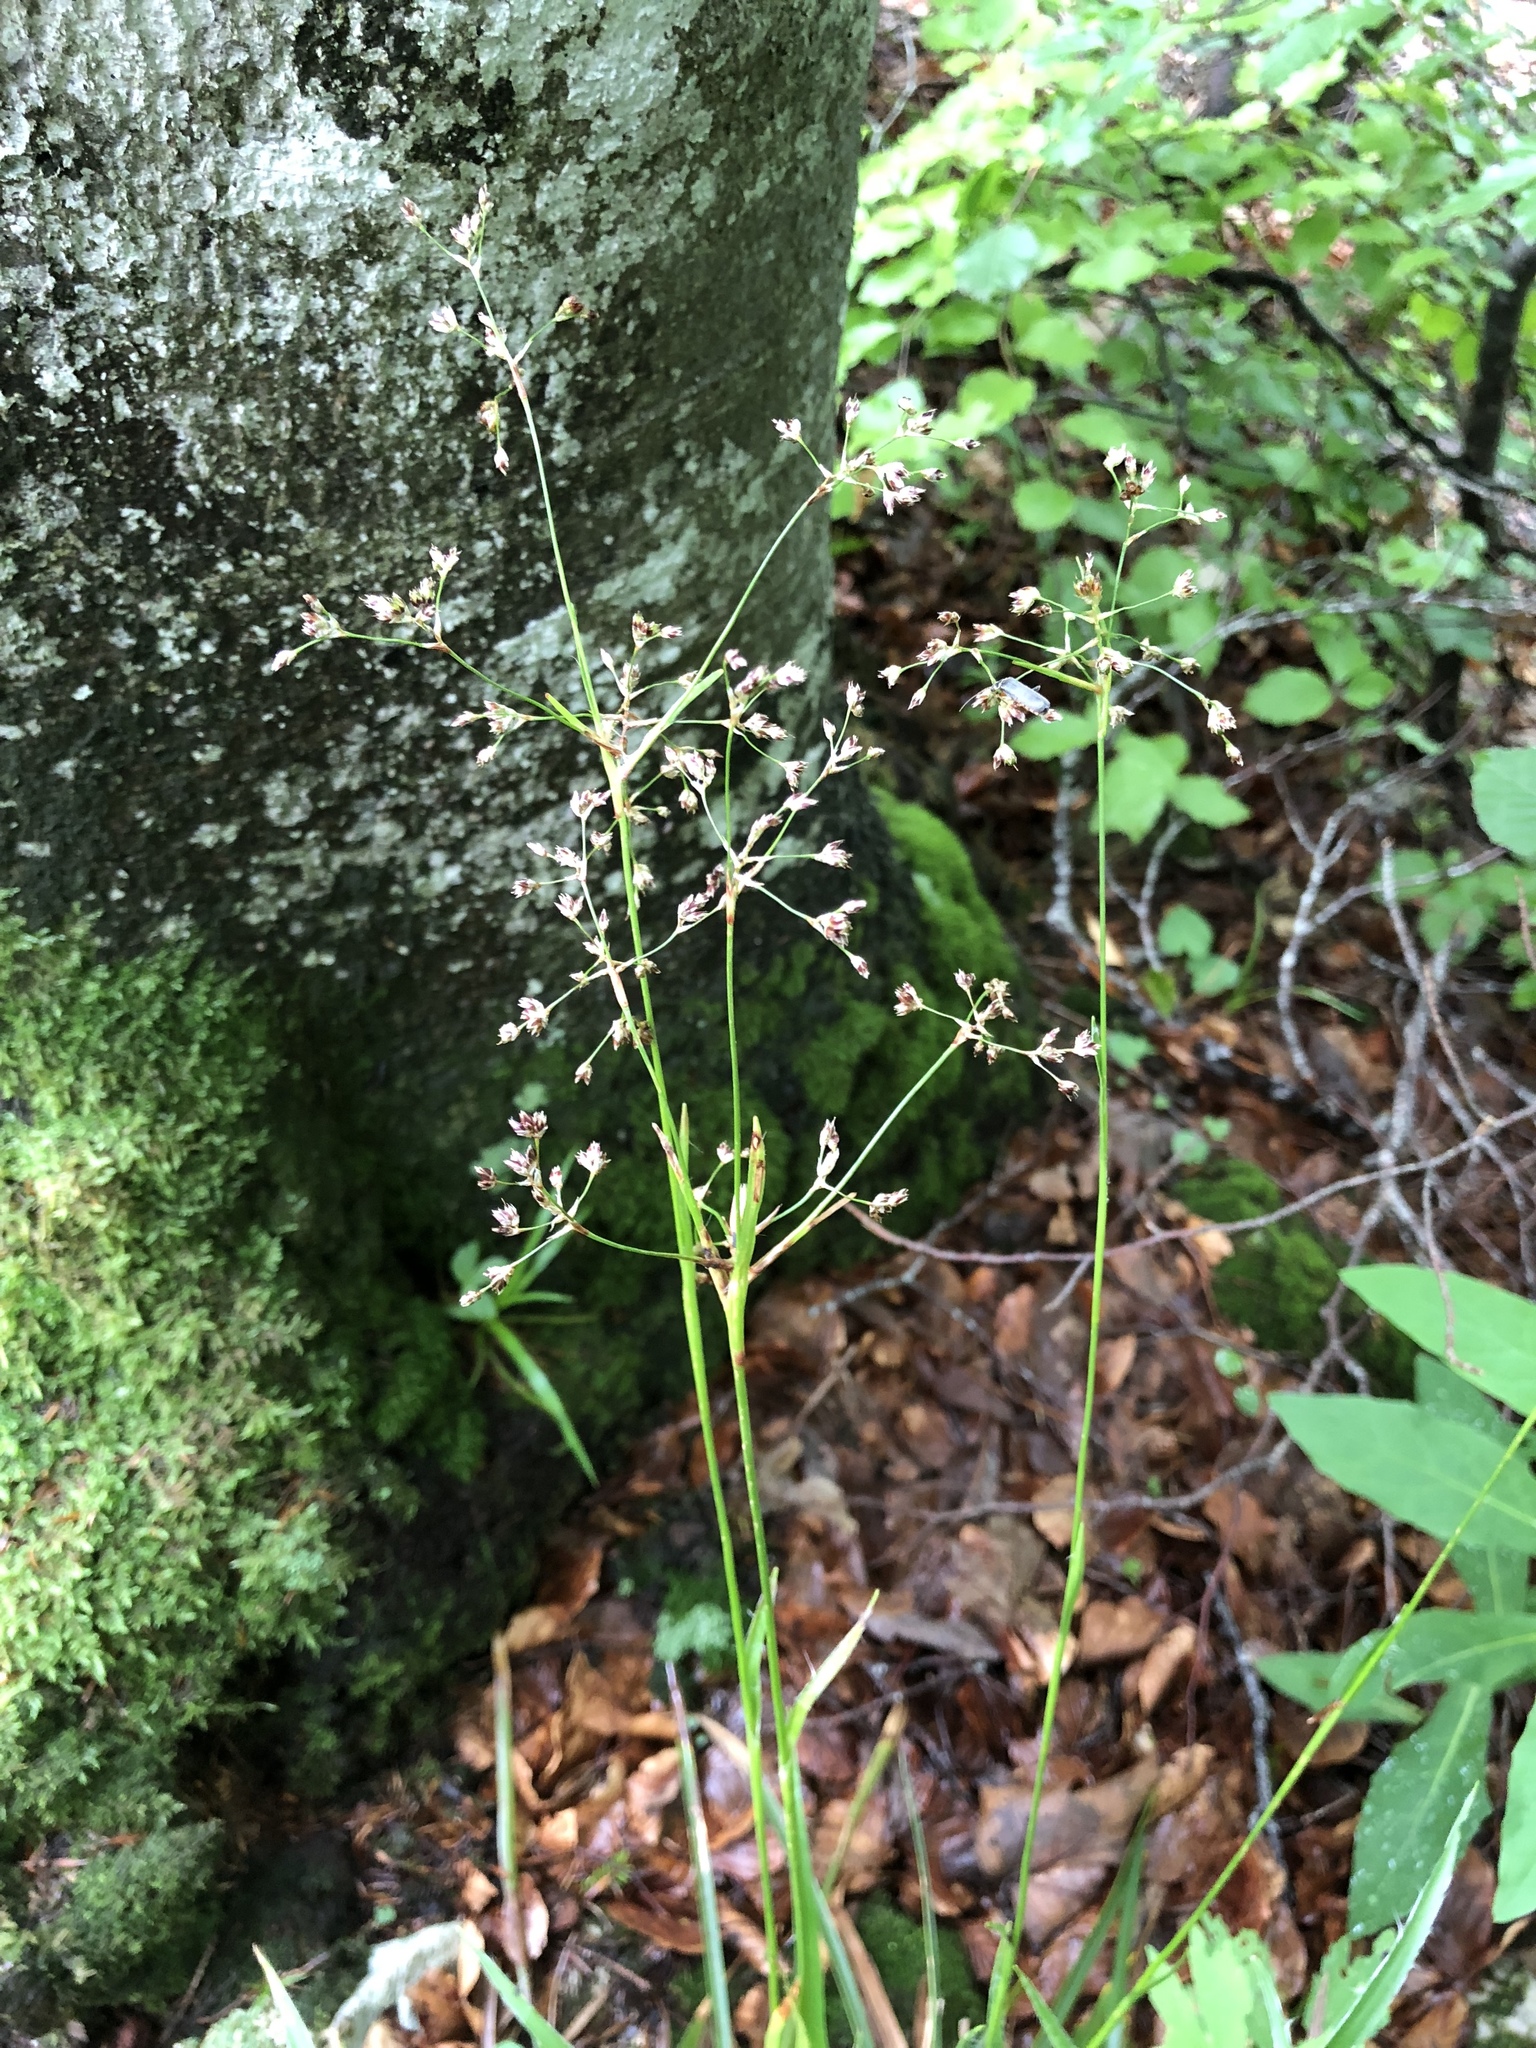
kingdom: Plantae
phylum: Tracheophyta
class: Liliopsida
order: Poales
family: Juncaceae
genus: Luzula
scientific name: Luzula sylvatica
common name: Great wood-rush
